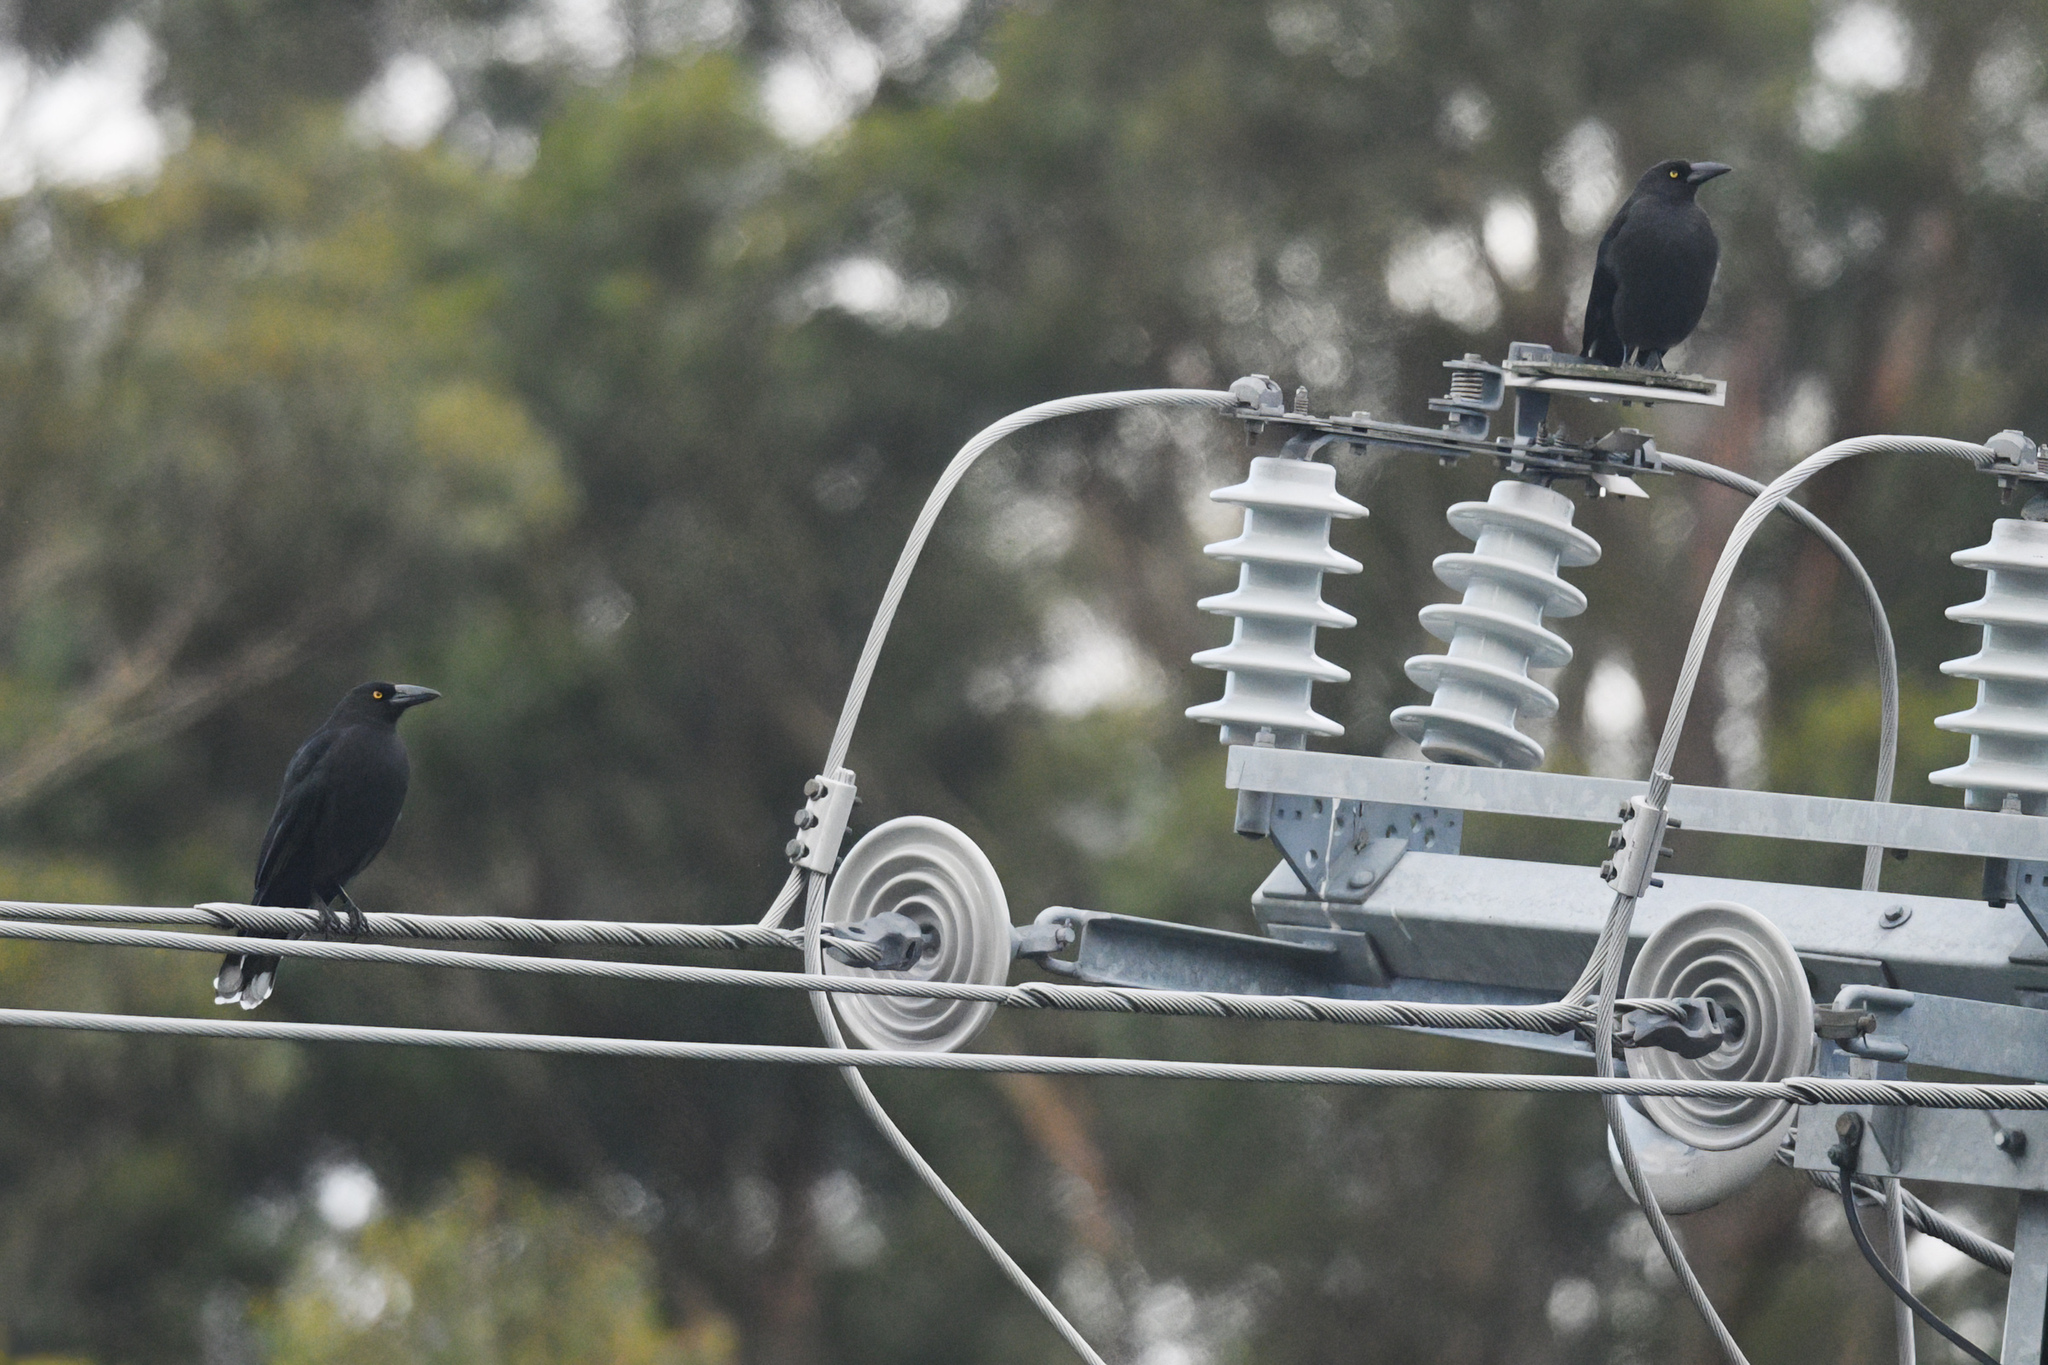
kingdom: Animalia
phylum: Chordata
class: Aves
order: Passeriformes
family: Cracticidae
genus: Strepera
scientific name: Strepera fuliginosa
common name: Black currawong
